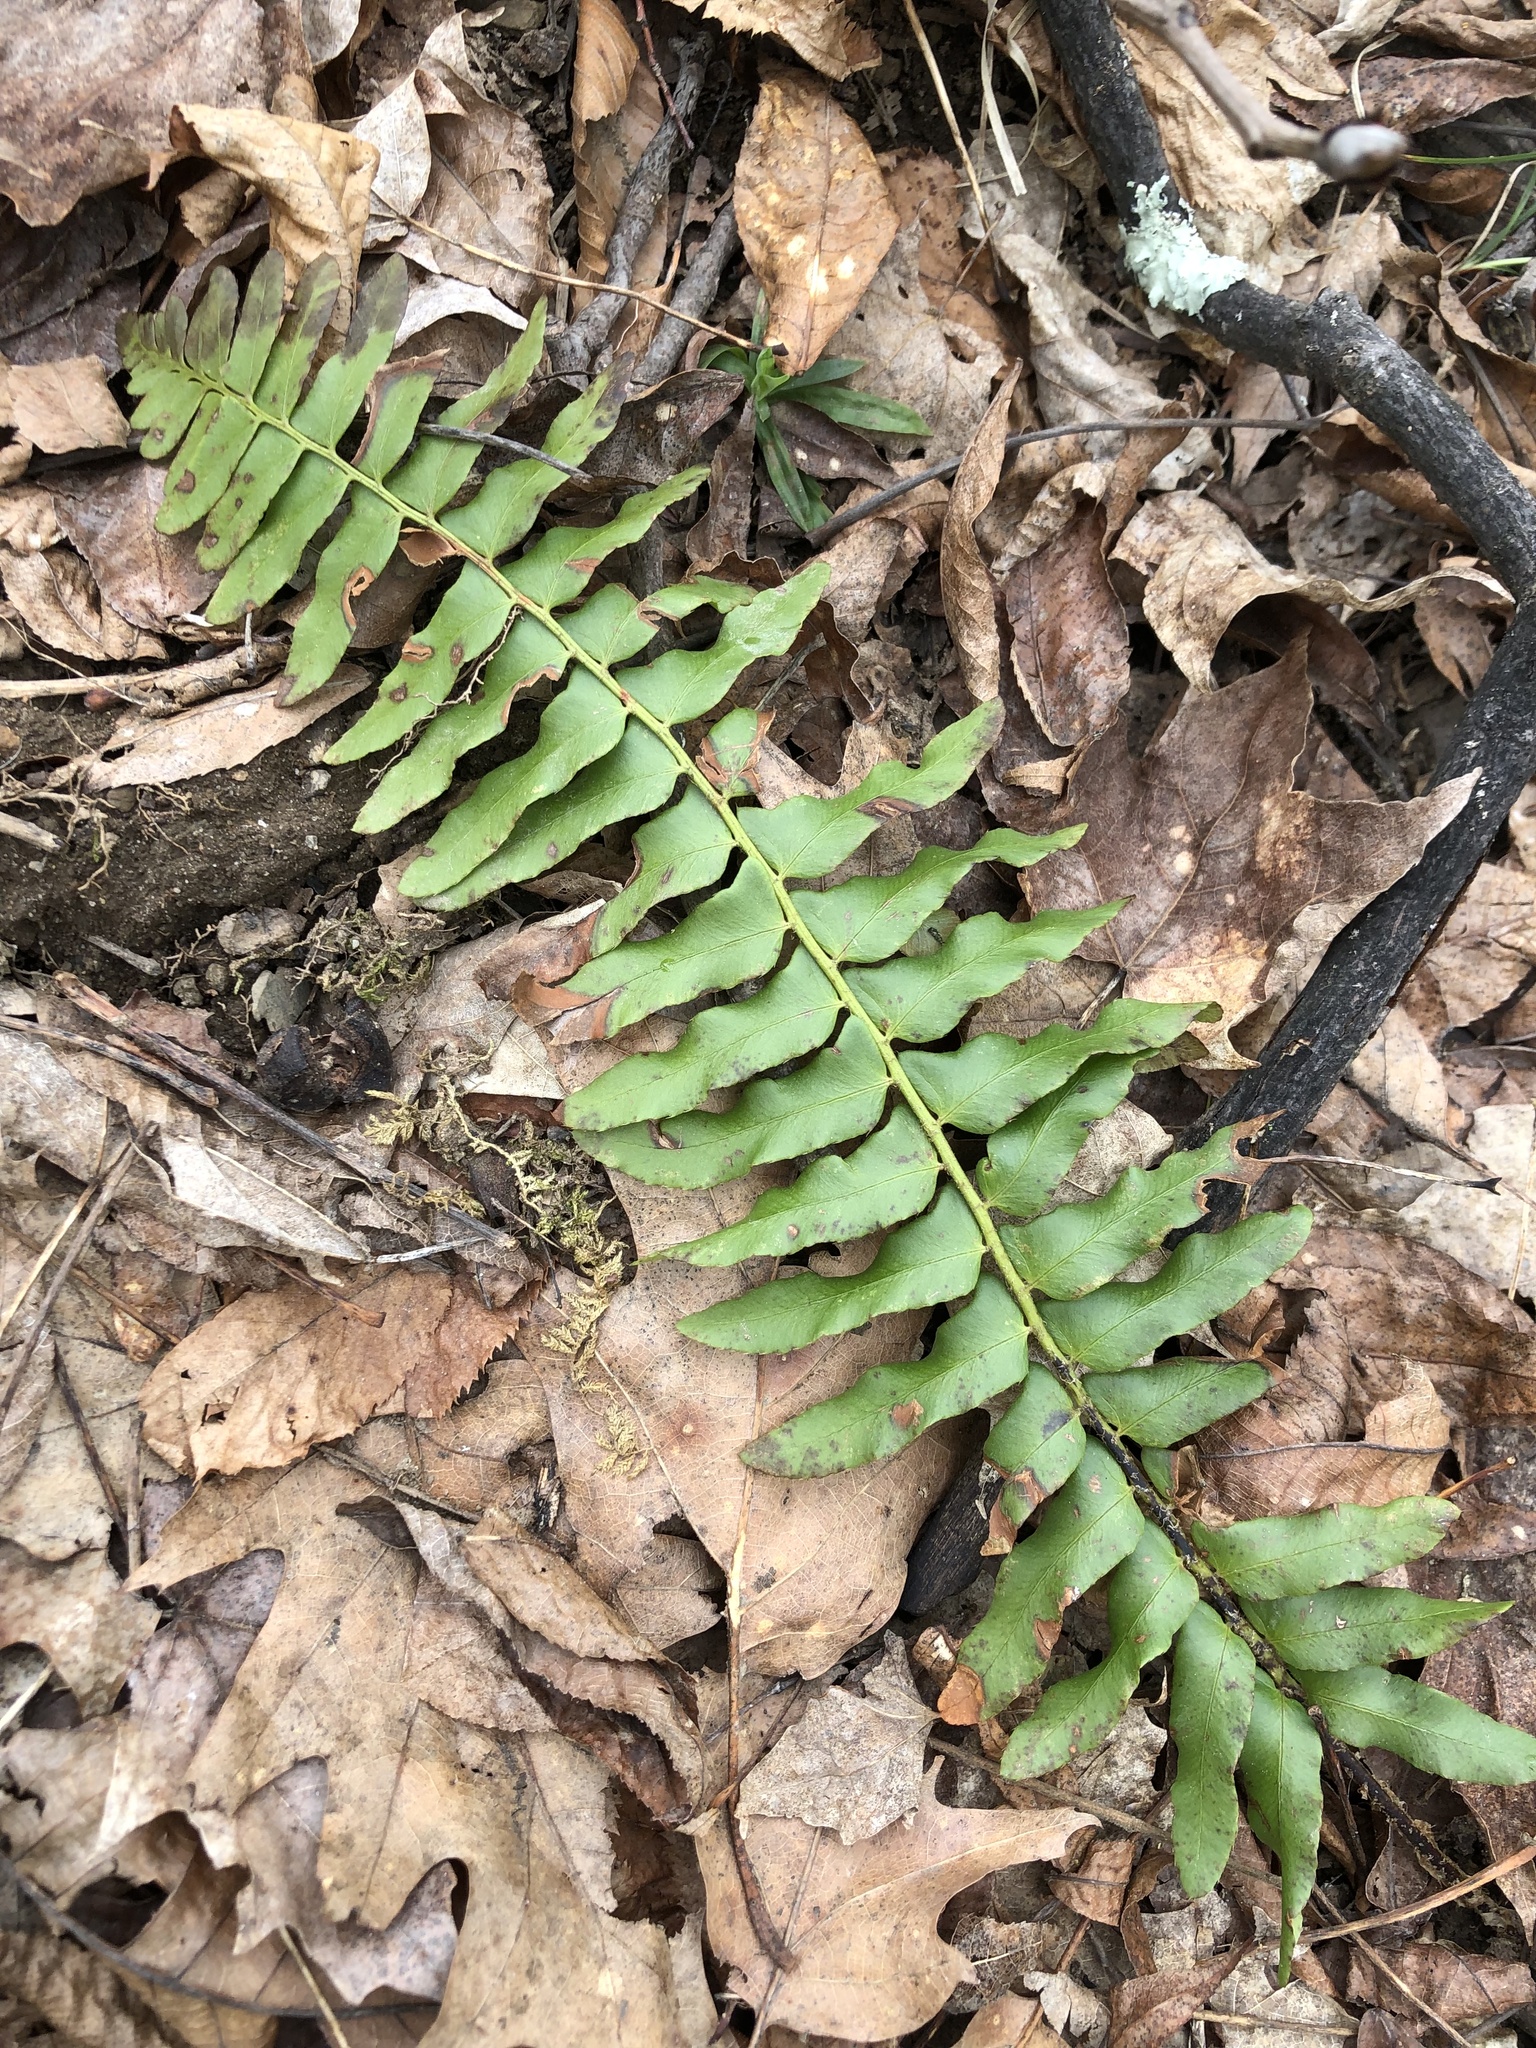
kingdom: Plantae
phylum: Tracheophyta
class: Polypodiopsida
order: Polypodiales
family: Dryopteridaceae
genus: Polystichum
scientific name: Polystichum acrostichoides
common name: Christmas fern
